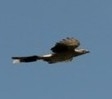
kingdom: Animalia
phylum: Chordata
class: Aves
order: Cuculiformes
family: Cuculidae
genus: Guira
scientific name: Guira guira
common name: Guira cuckoo
